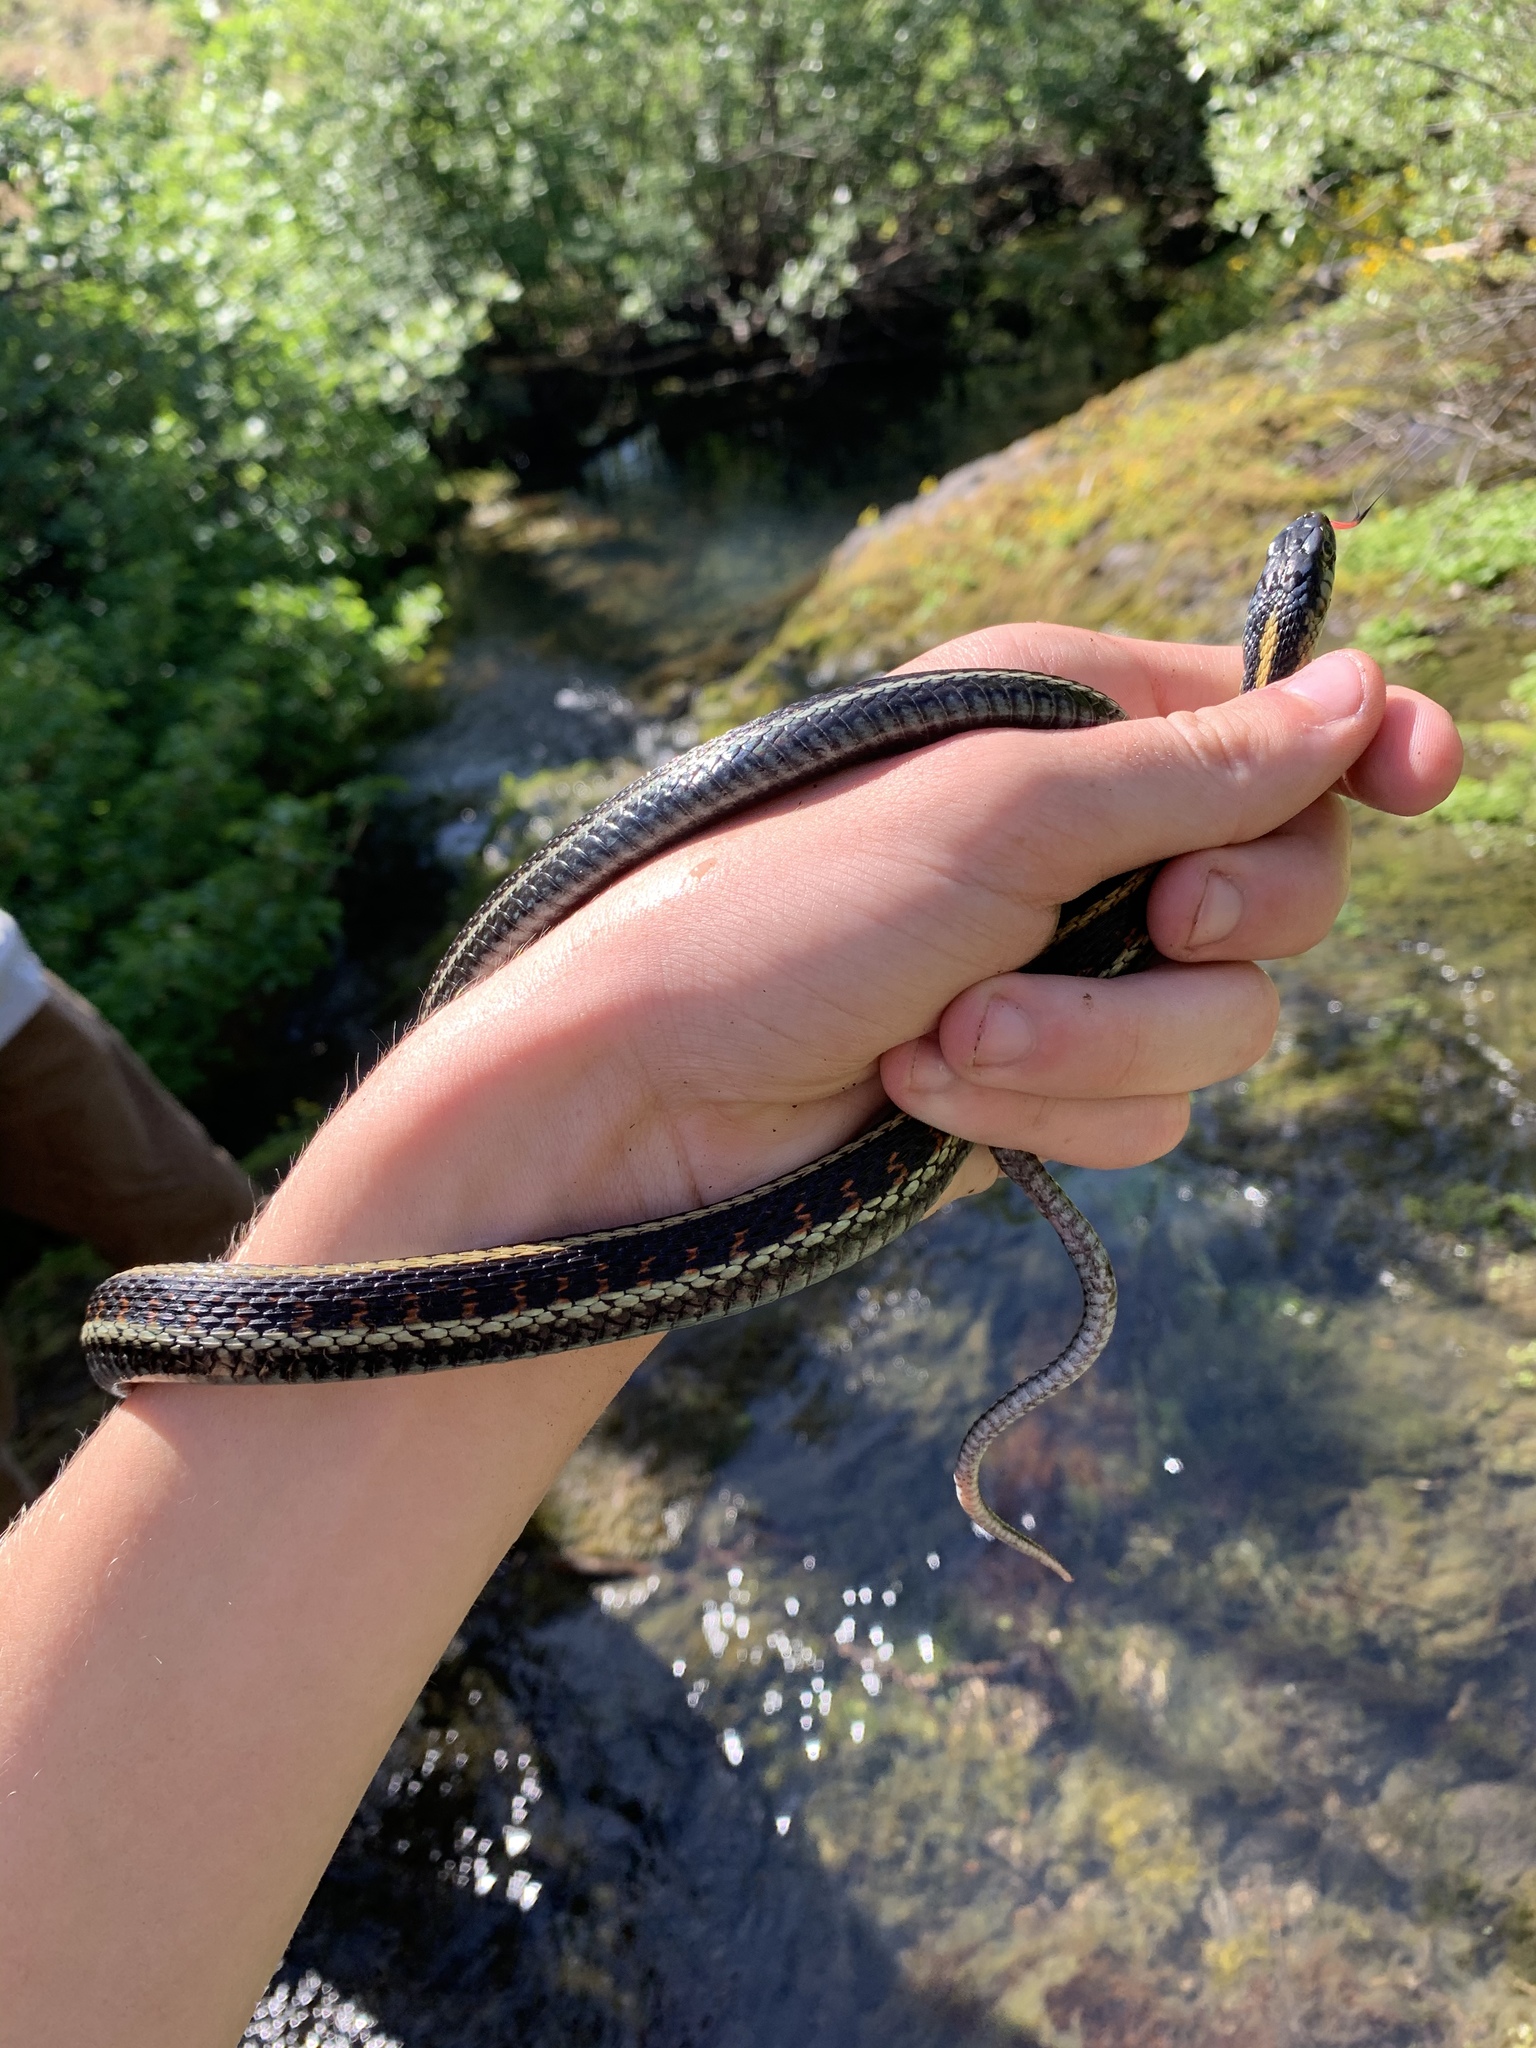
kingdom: Animalia
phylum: Chordata
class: Squamata
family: Colubridae
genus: Thamnophis
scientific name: Thamnophis sirtalis
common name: Common garter snake
